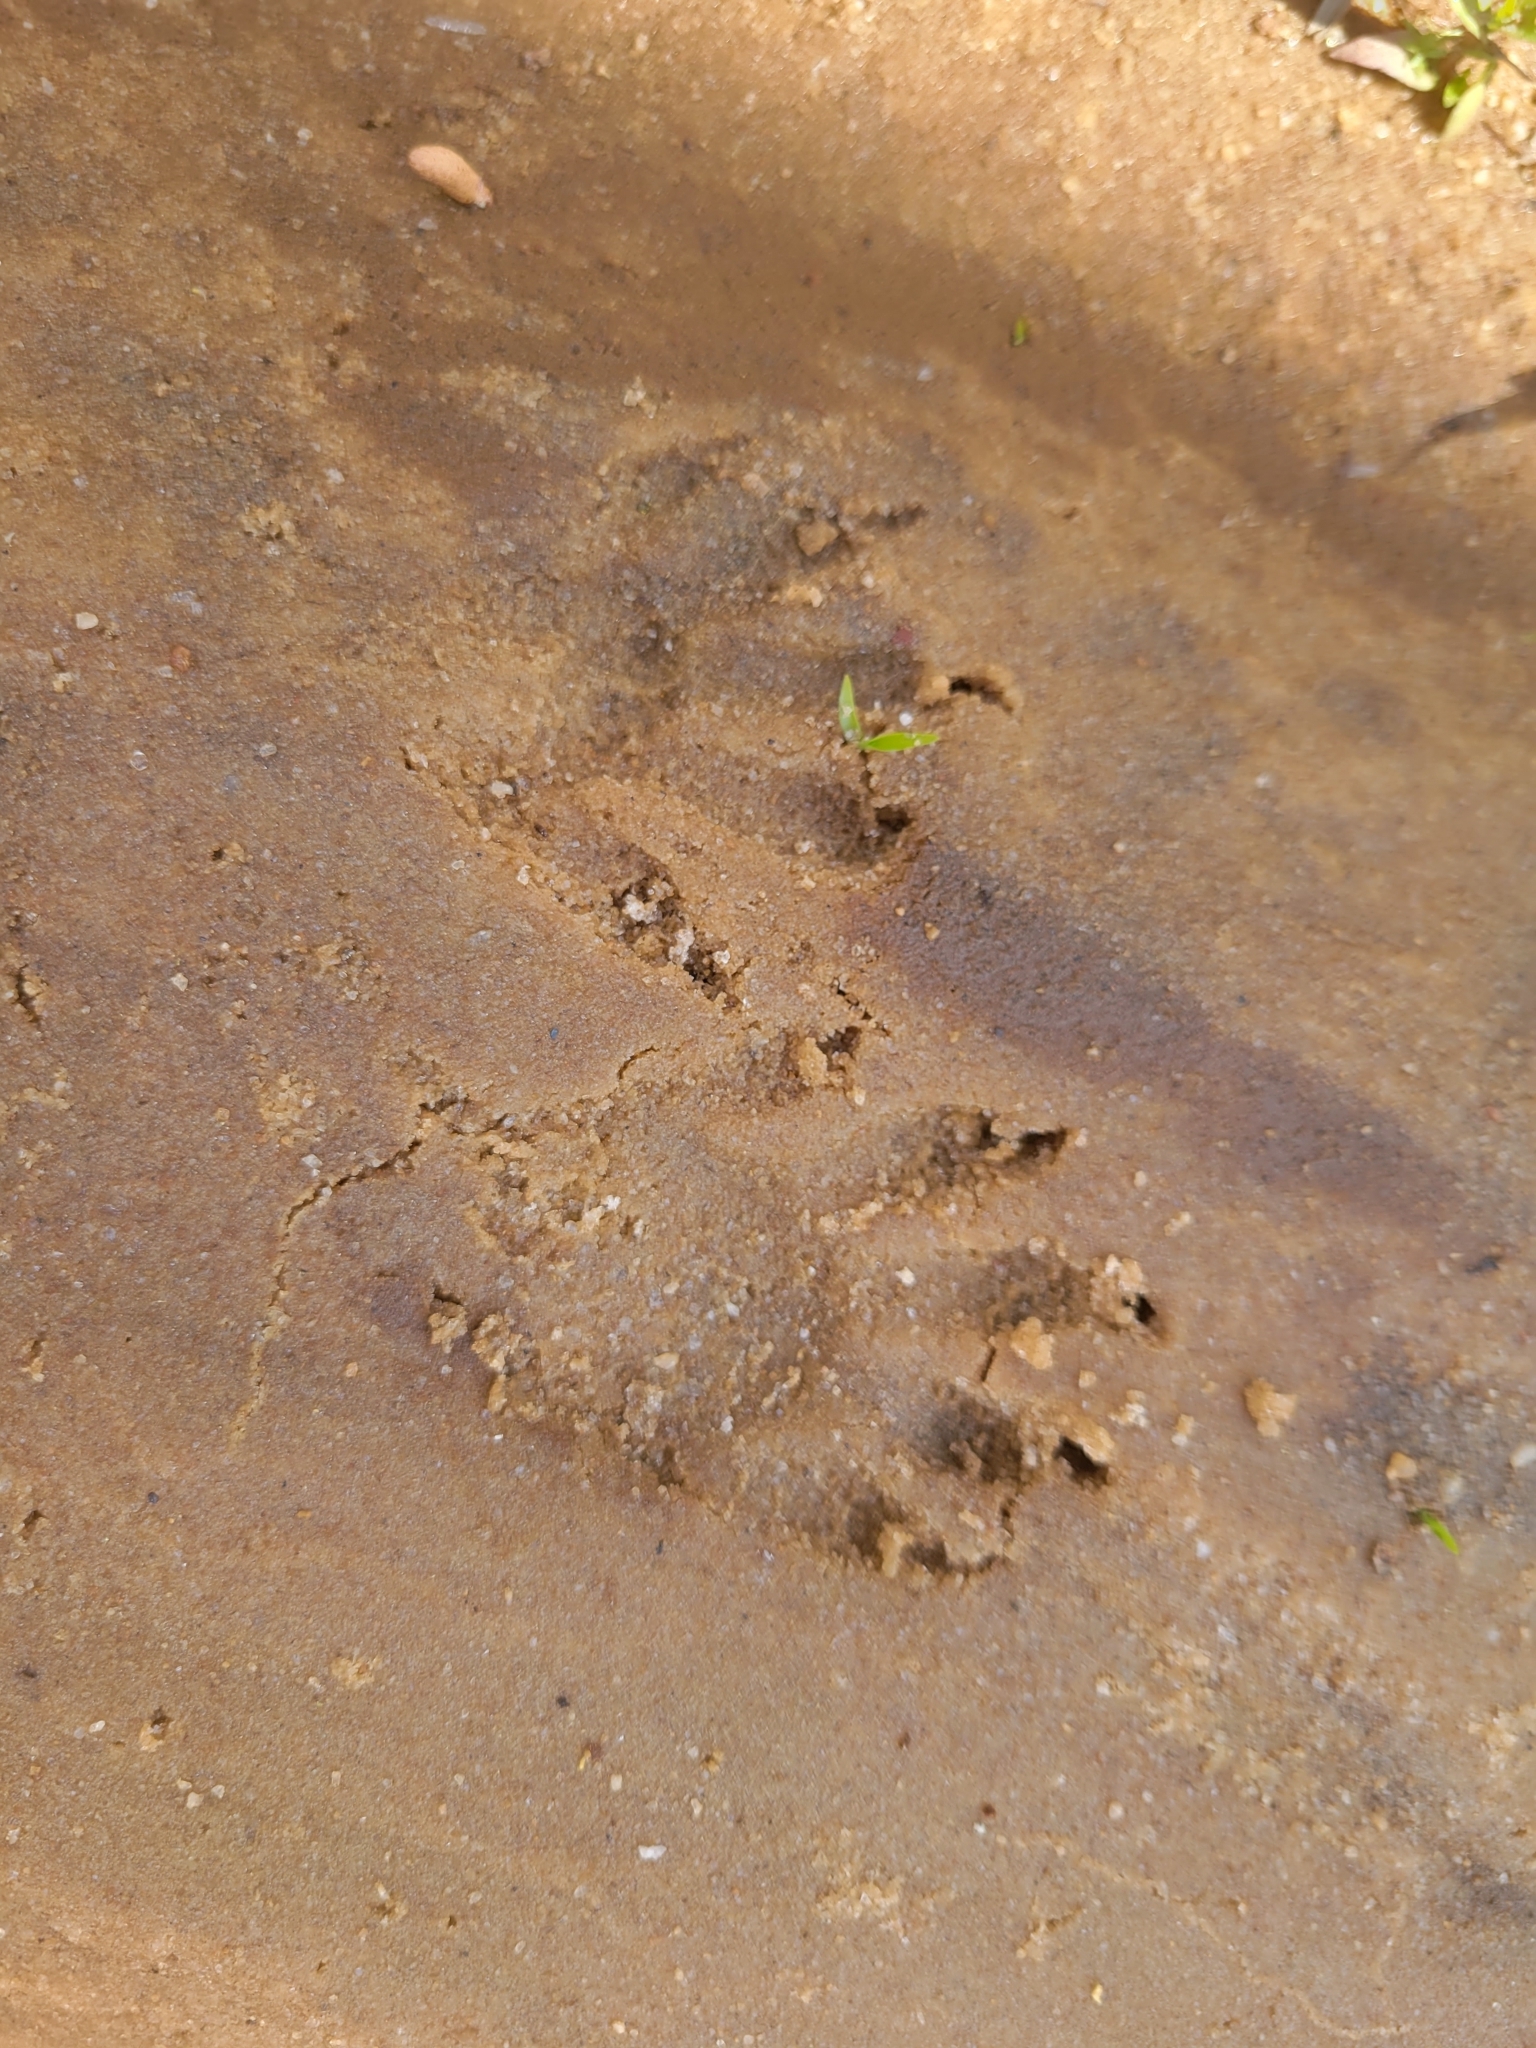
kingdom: Animalia
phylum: Chordata
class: Mammalia
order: Carnivora
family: Procyonidae
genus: Procyon
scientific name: Procyon lotor
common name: Raccoon
